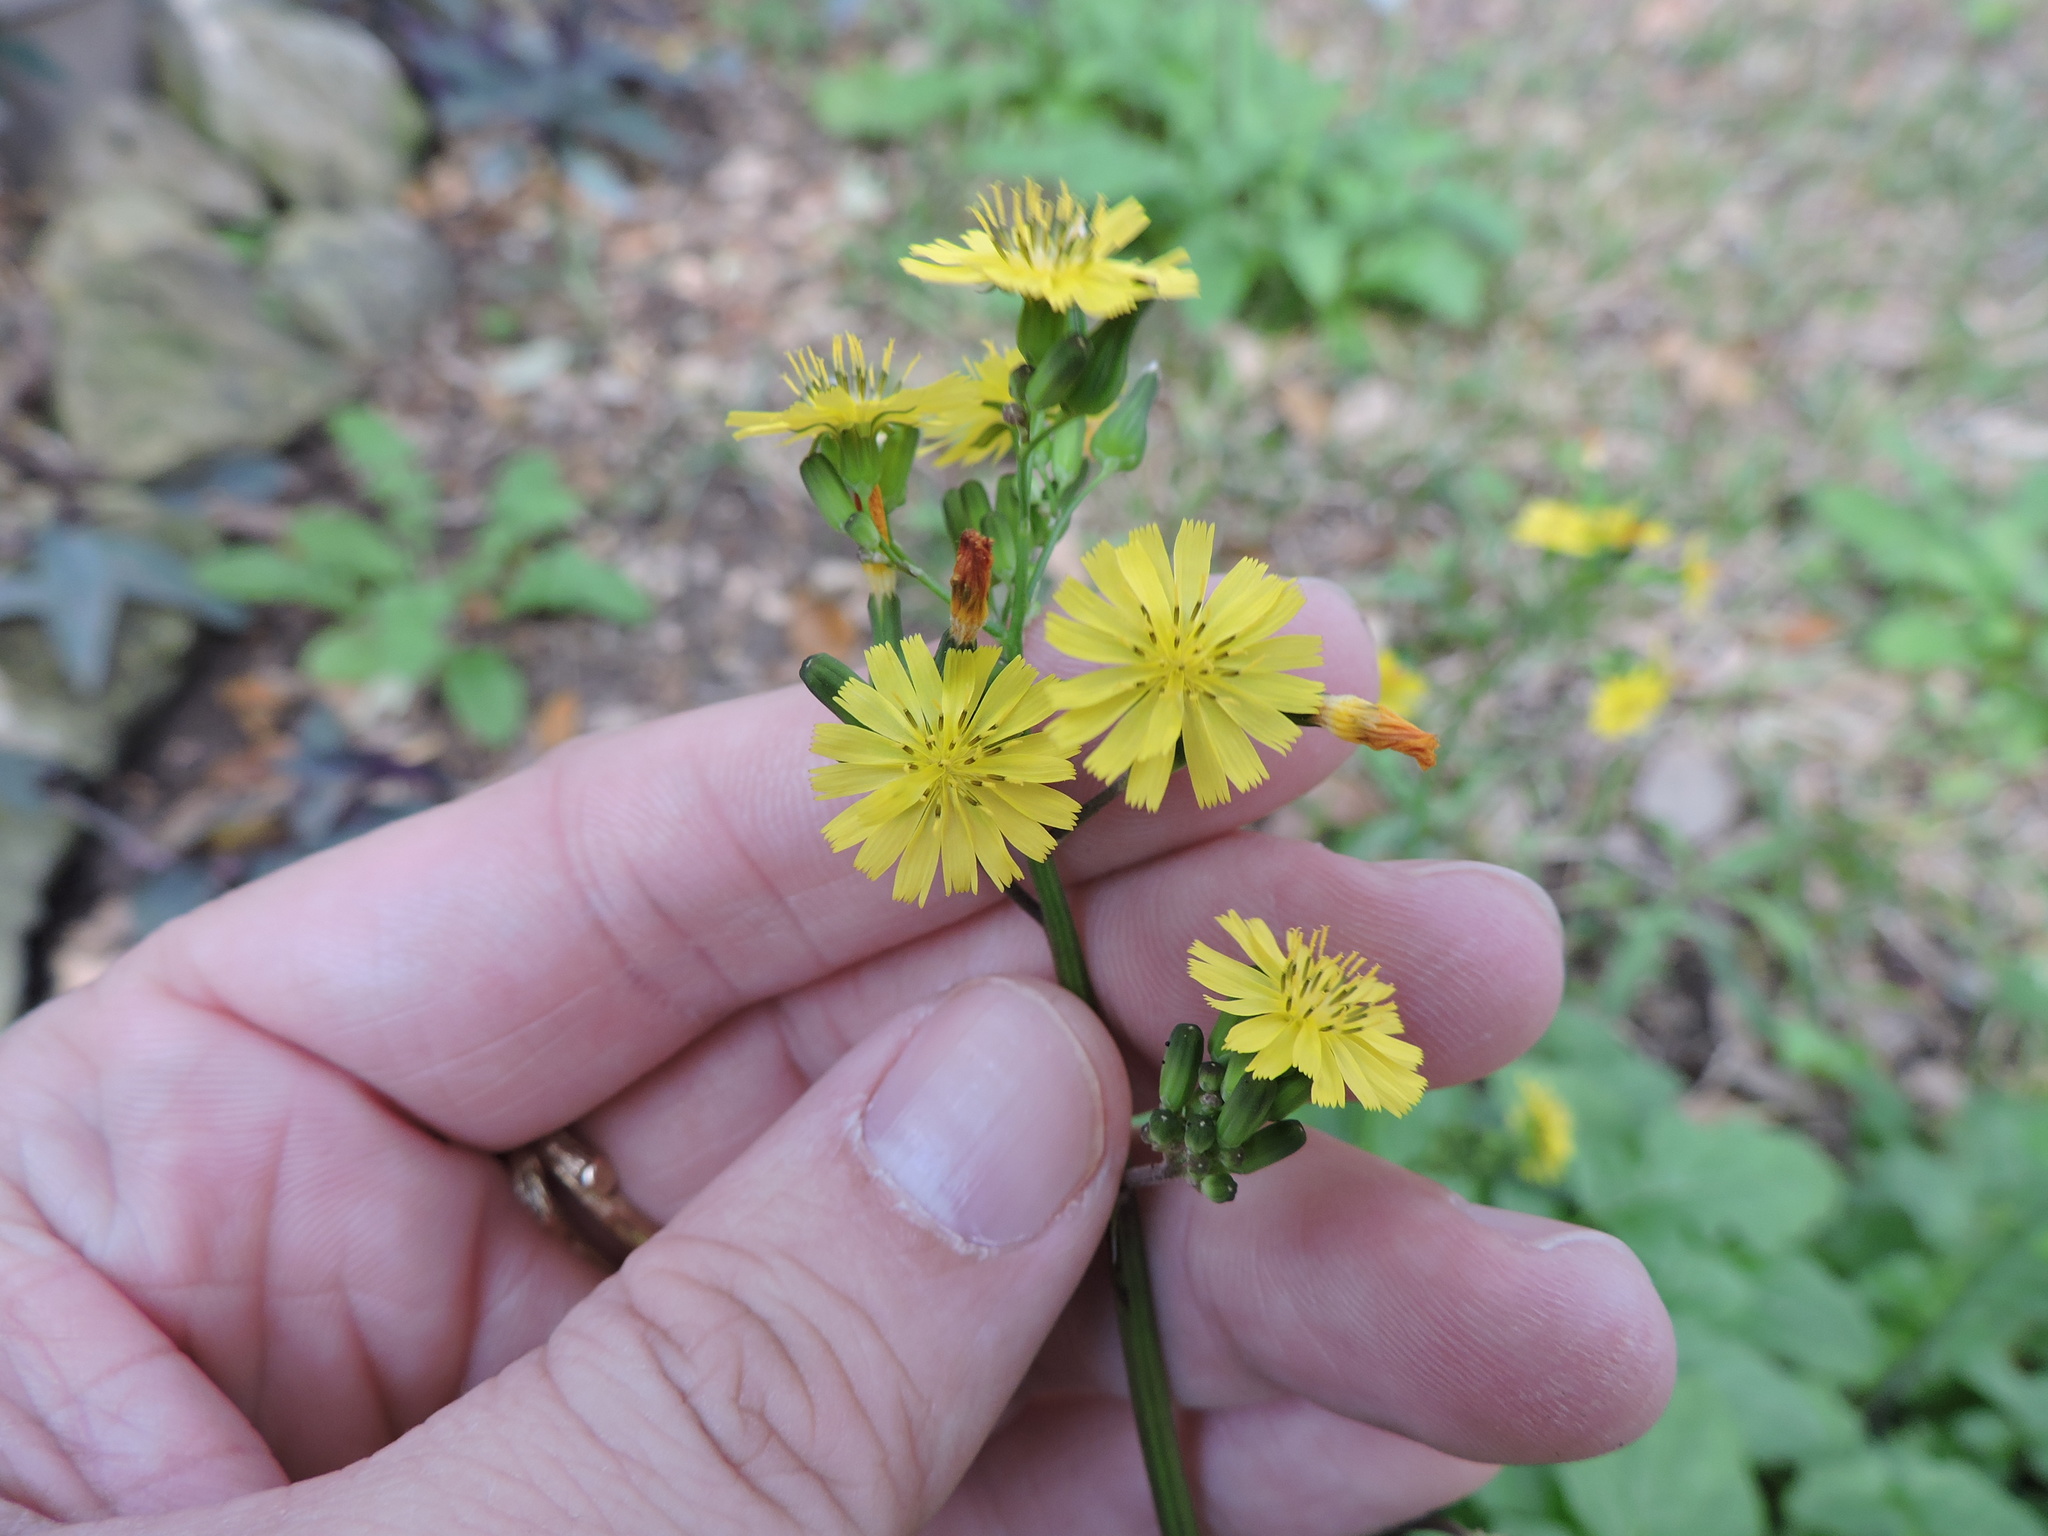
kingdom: Plantae
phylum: Tracheophyta
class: Magnoliopsida
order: Asterales
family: Asteraceae
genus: Youngia
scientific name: Youngia japonica
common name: Oriental false hawksbeard
